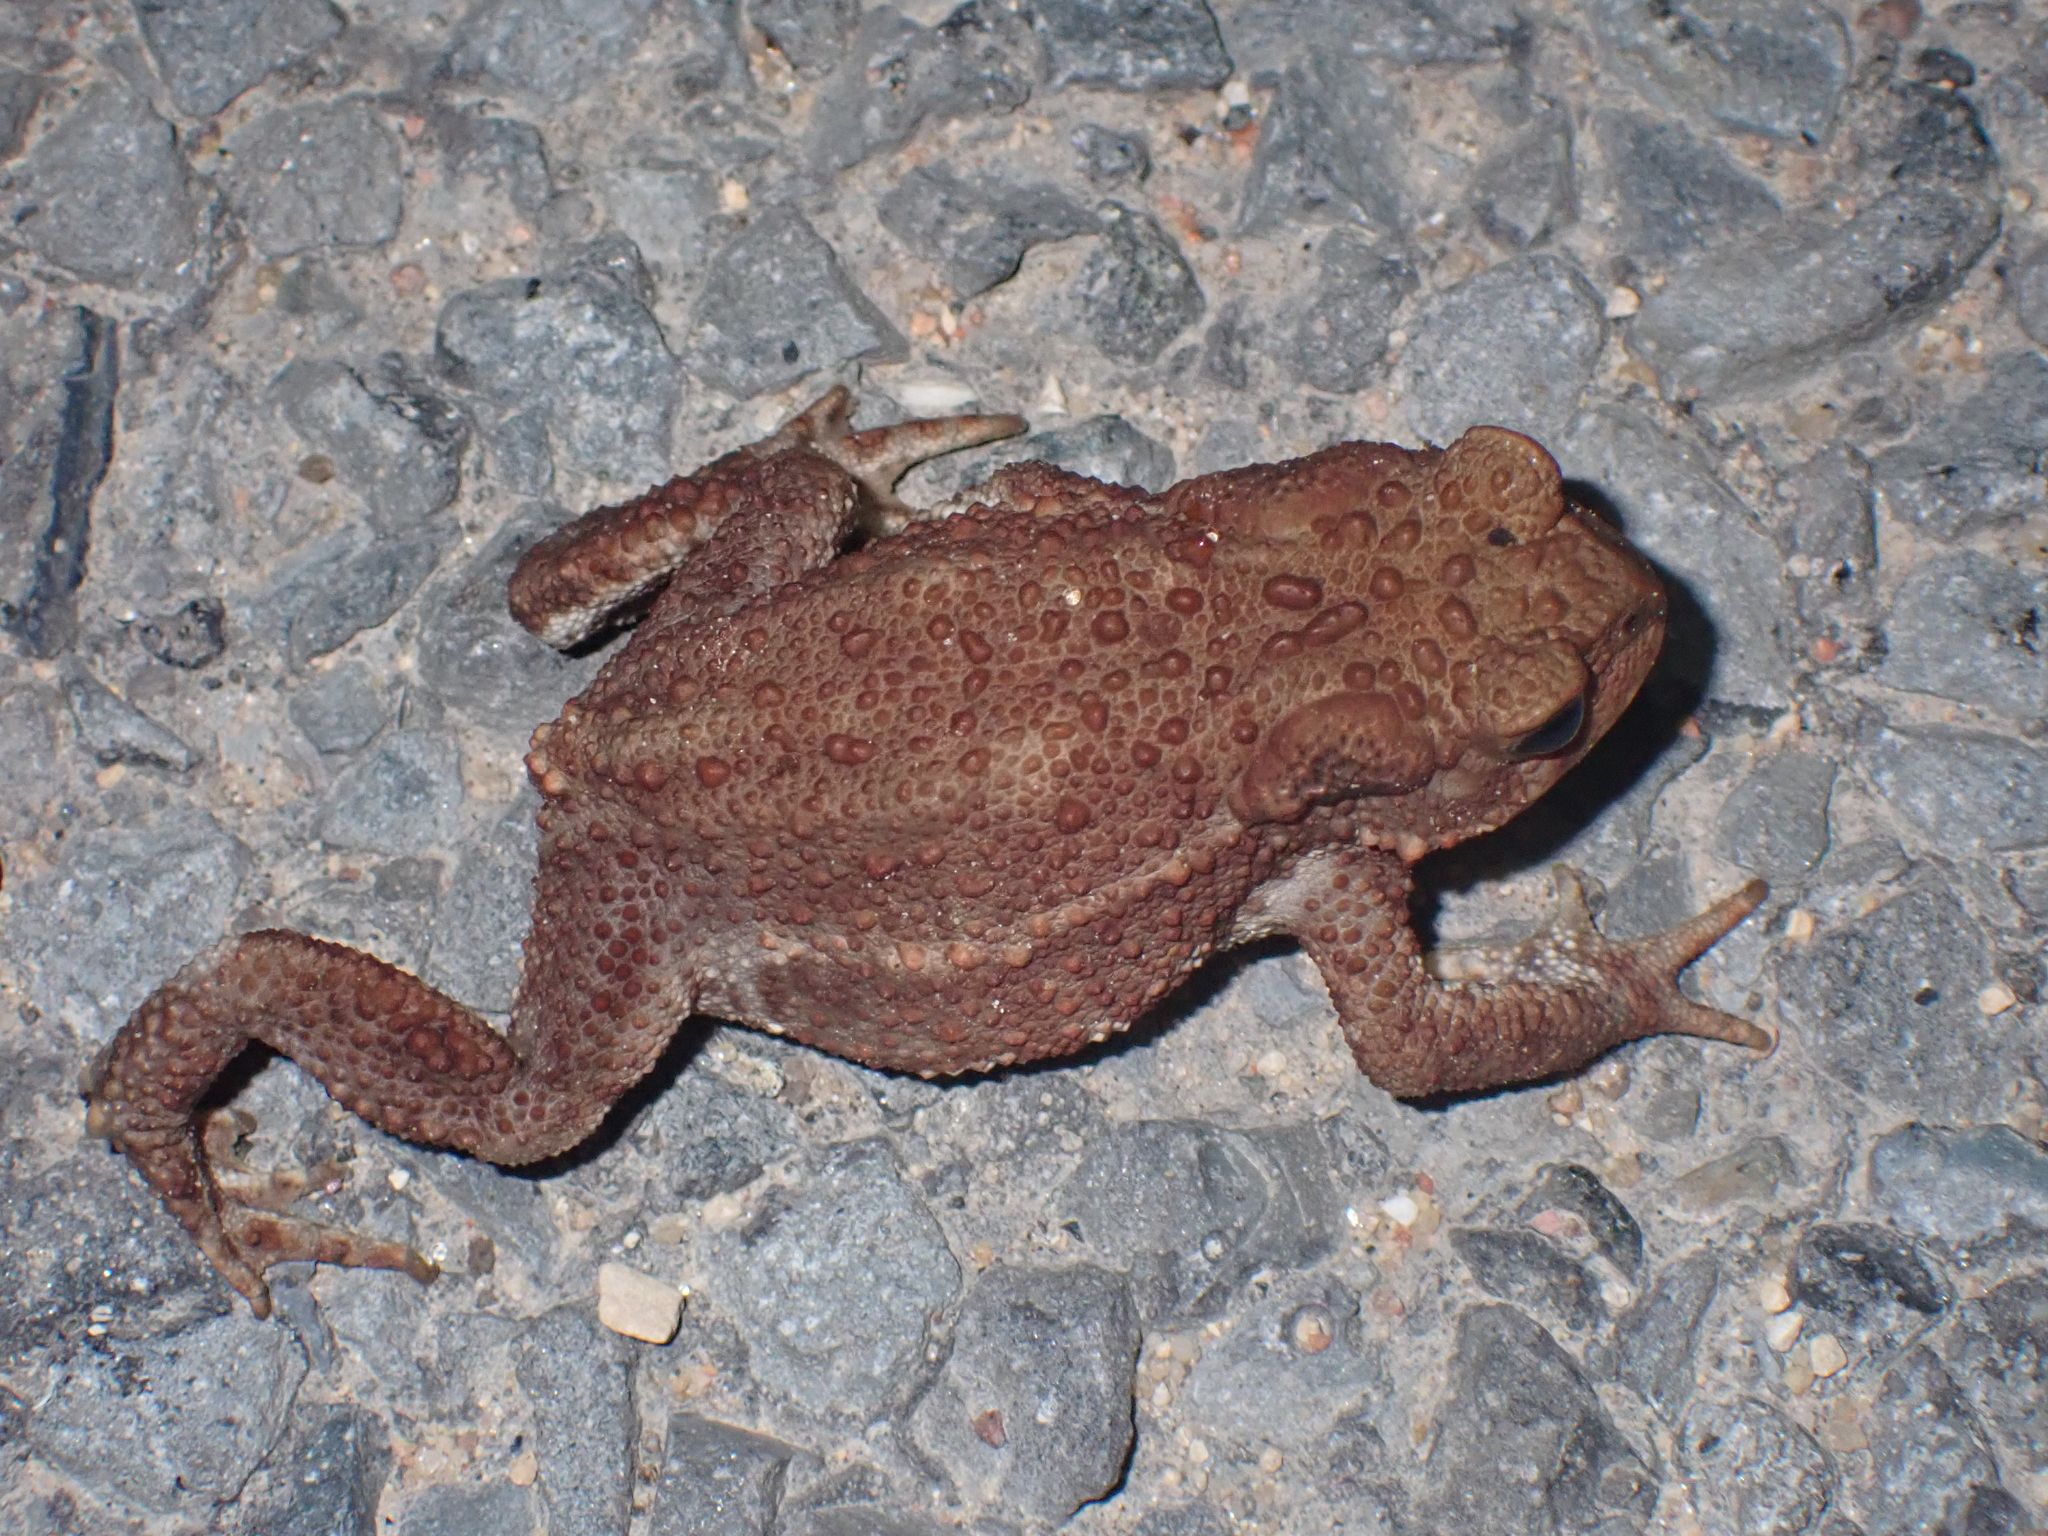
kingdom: Animalia
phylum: Chordata
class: Amphibia
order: Anura
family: Bufonidae
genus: Bufo
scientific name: Bufo bufo
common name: Common toad
